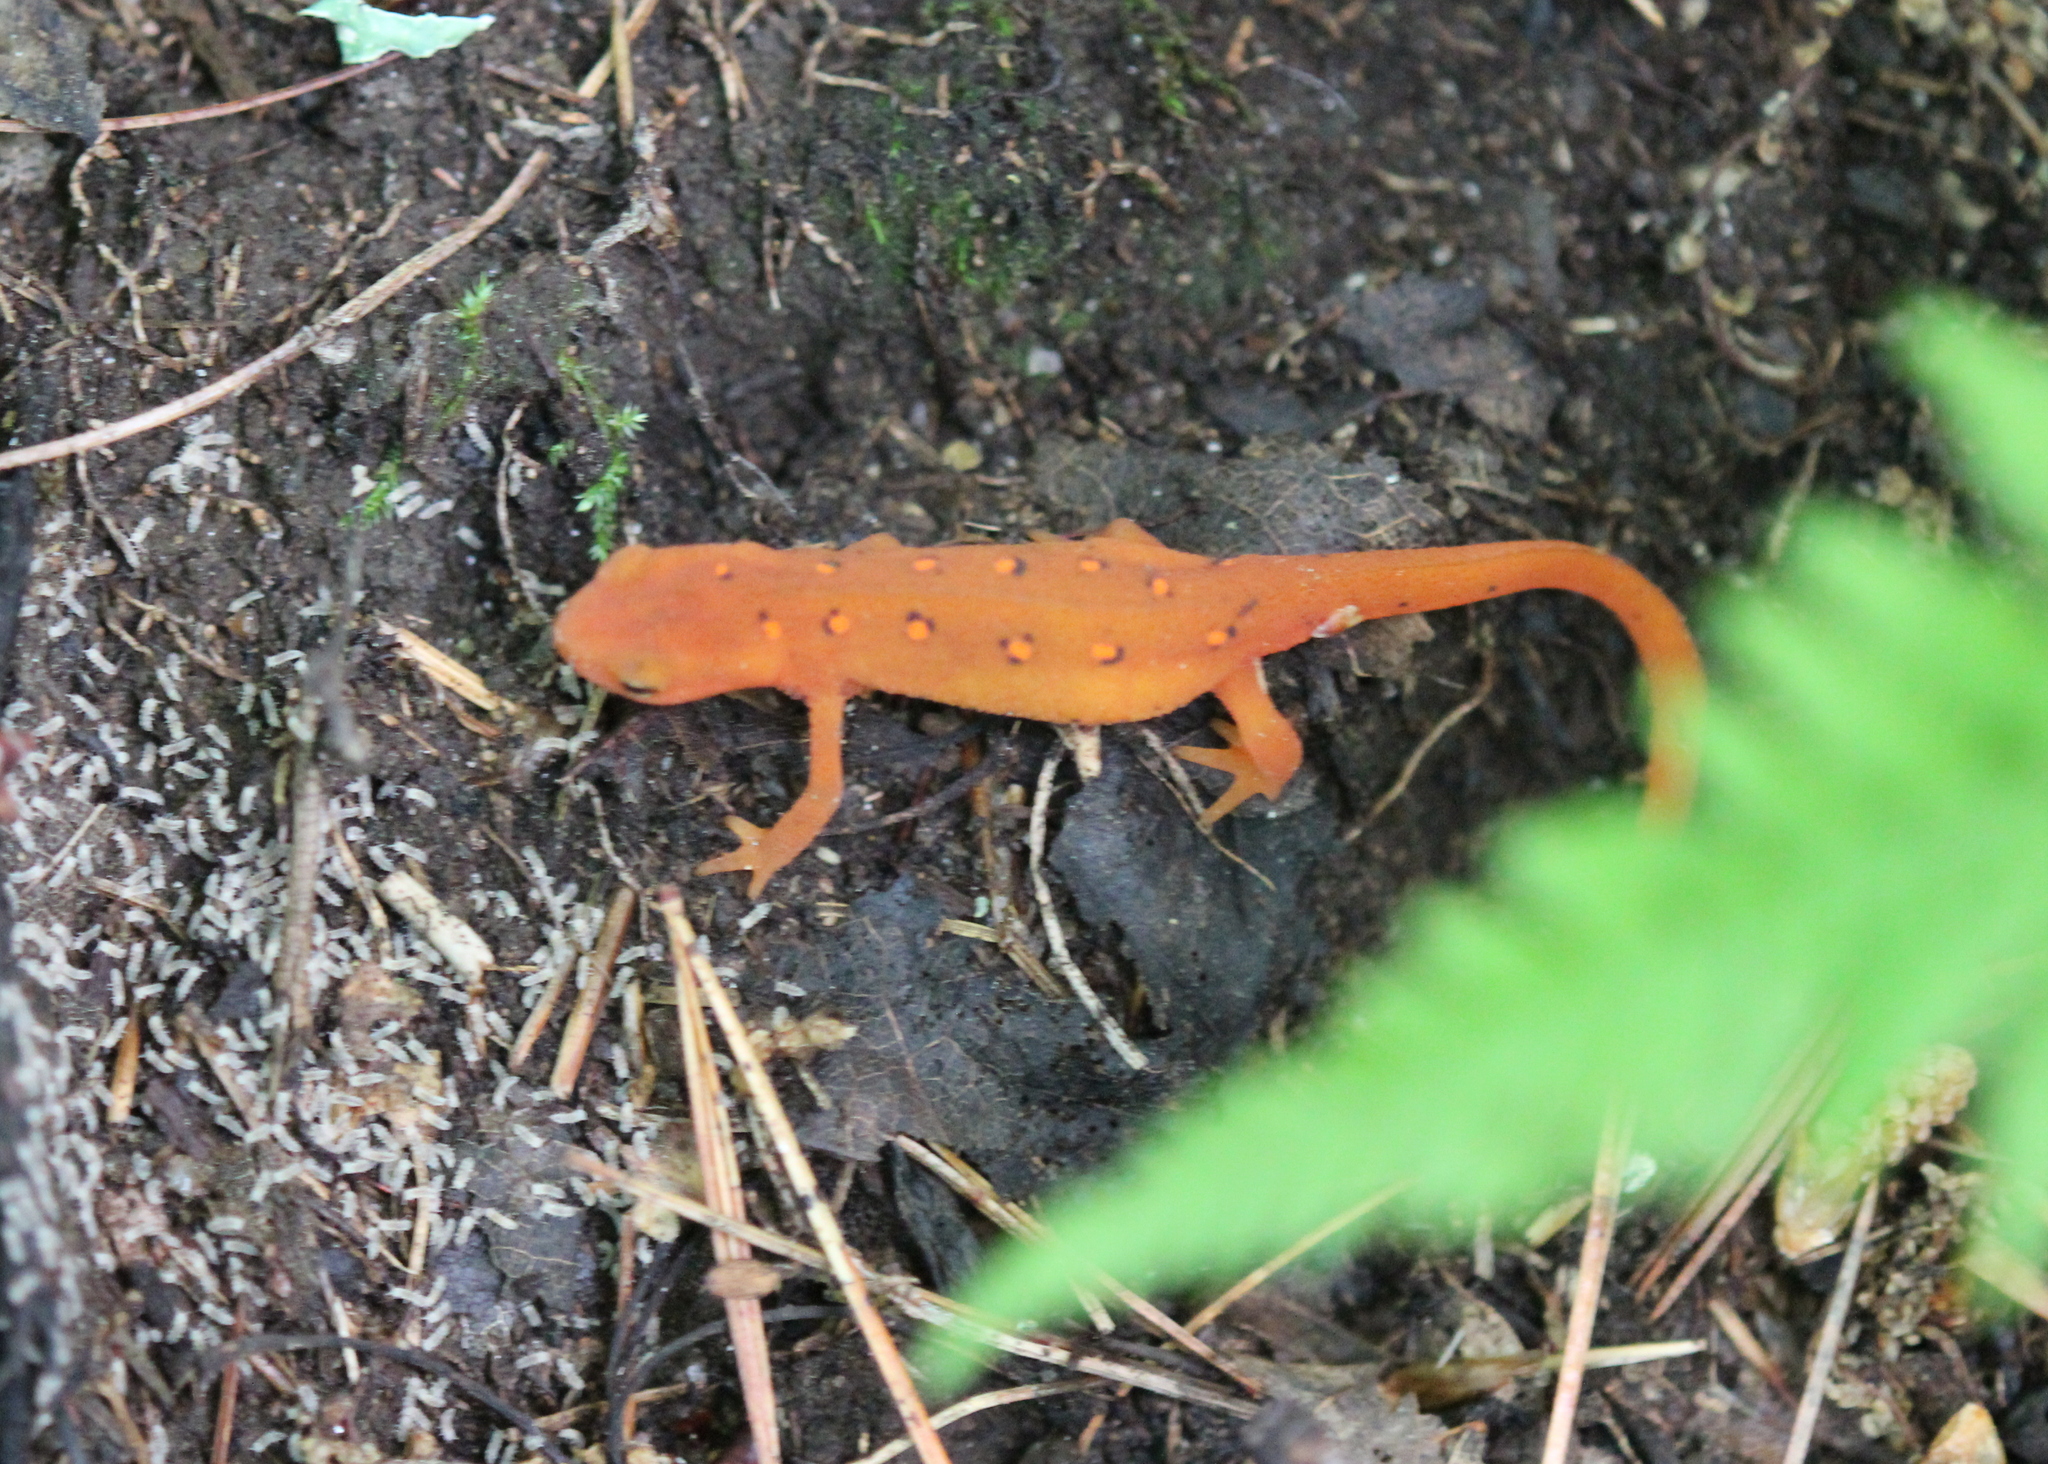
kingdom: Animalia
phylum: Chordata
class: Amphibia
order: Caudata
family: Salamandridae
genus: Notophthalmus
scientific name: Notophthalmus viridescens
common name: Eastern newt
